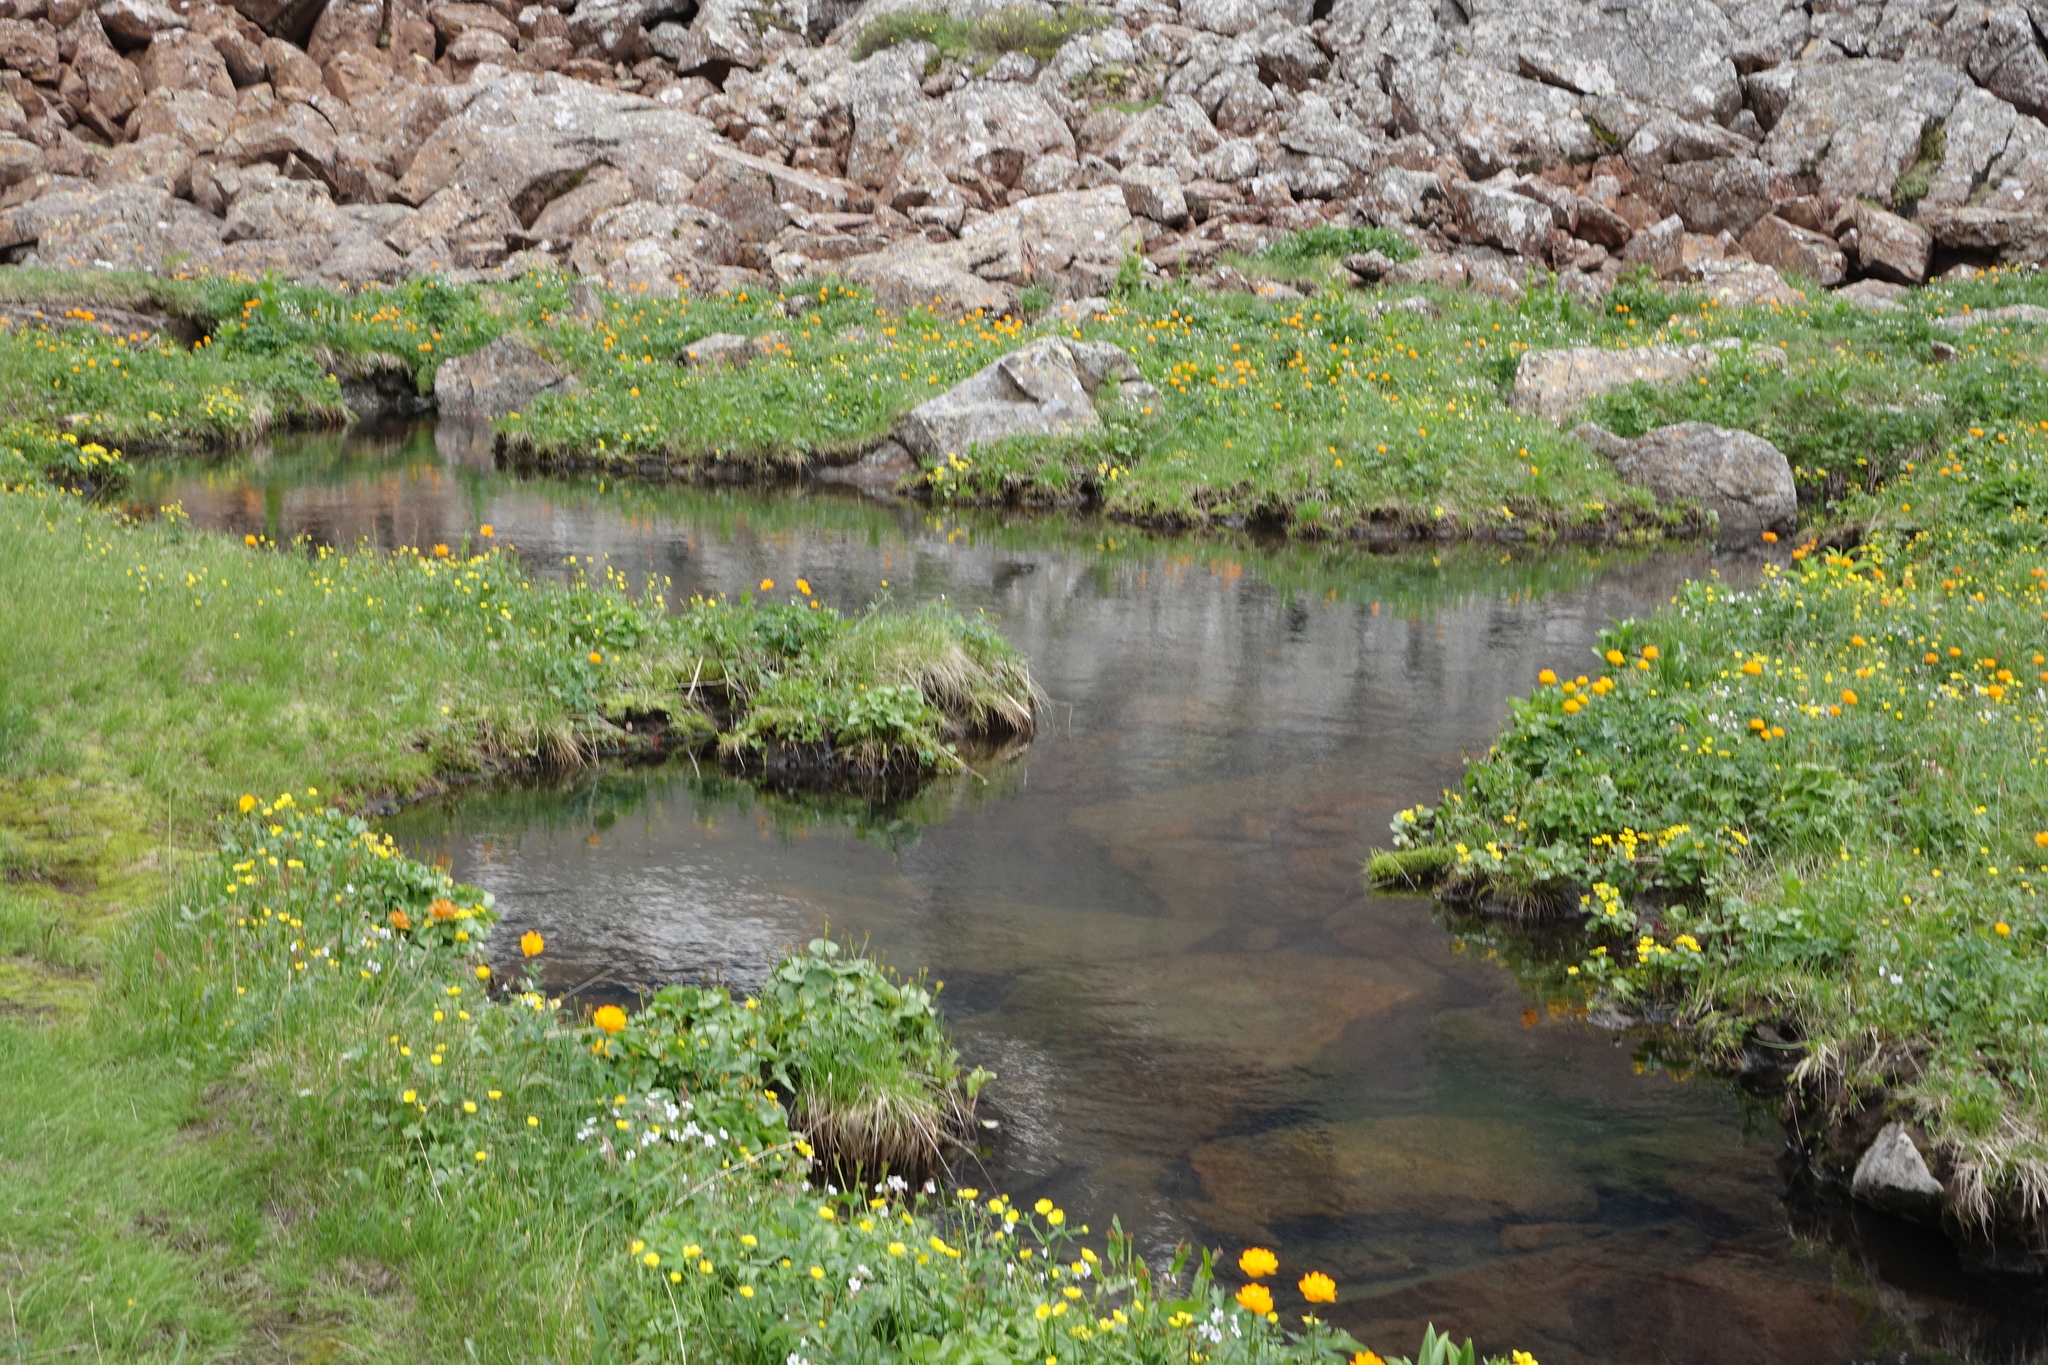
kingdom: Plantae
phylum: Tracheophyta
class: Magnoliopsida
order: Ranunculales
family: Ranunculaceae
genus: Caltha
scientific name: Caltha palustris
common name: Marsh marigold
